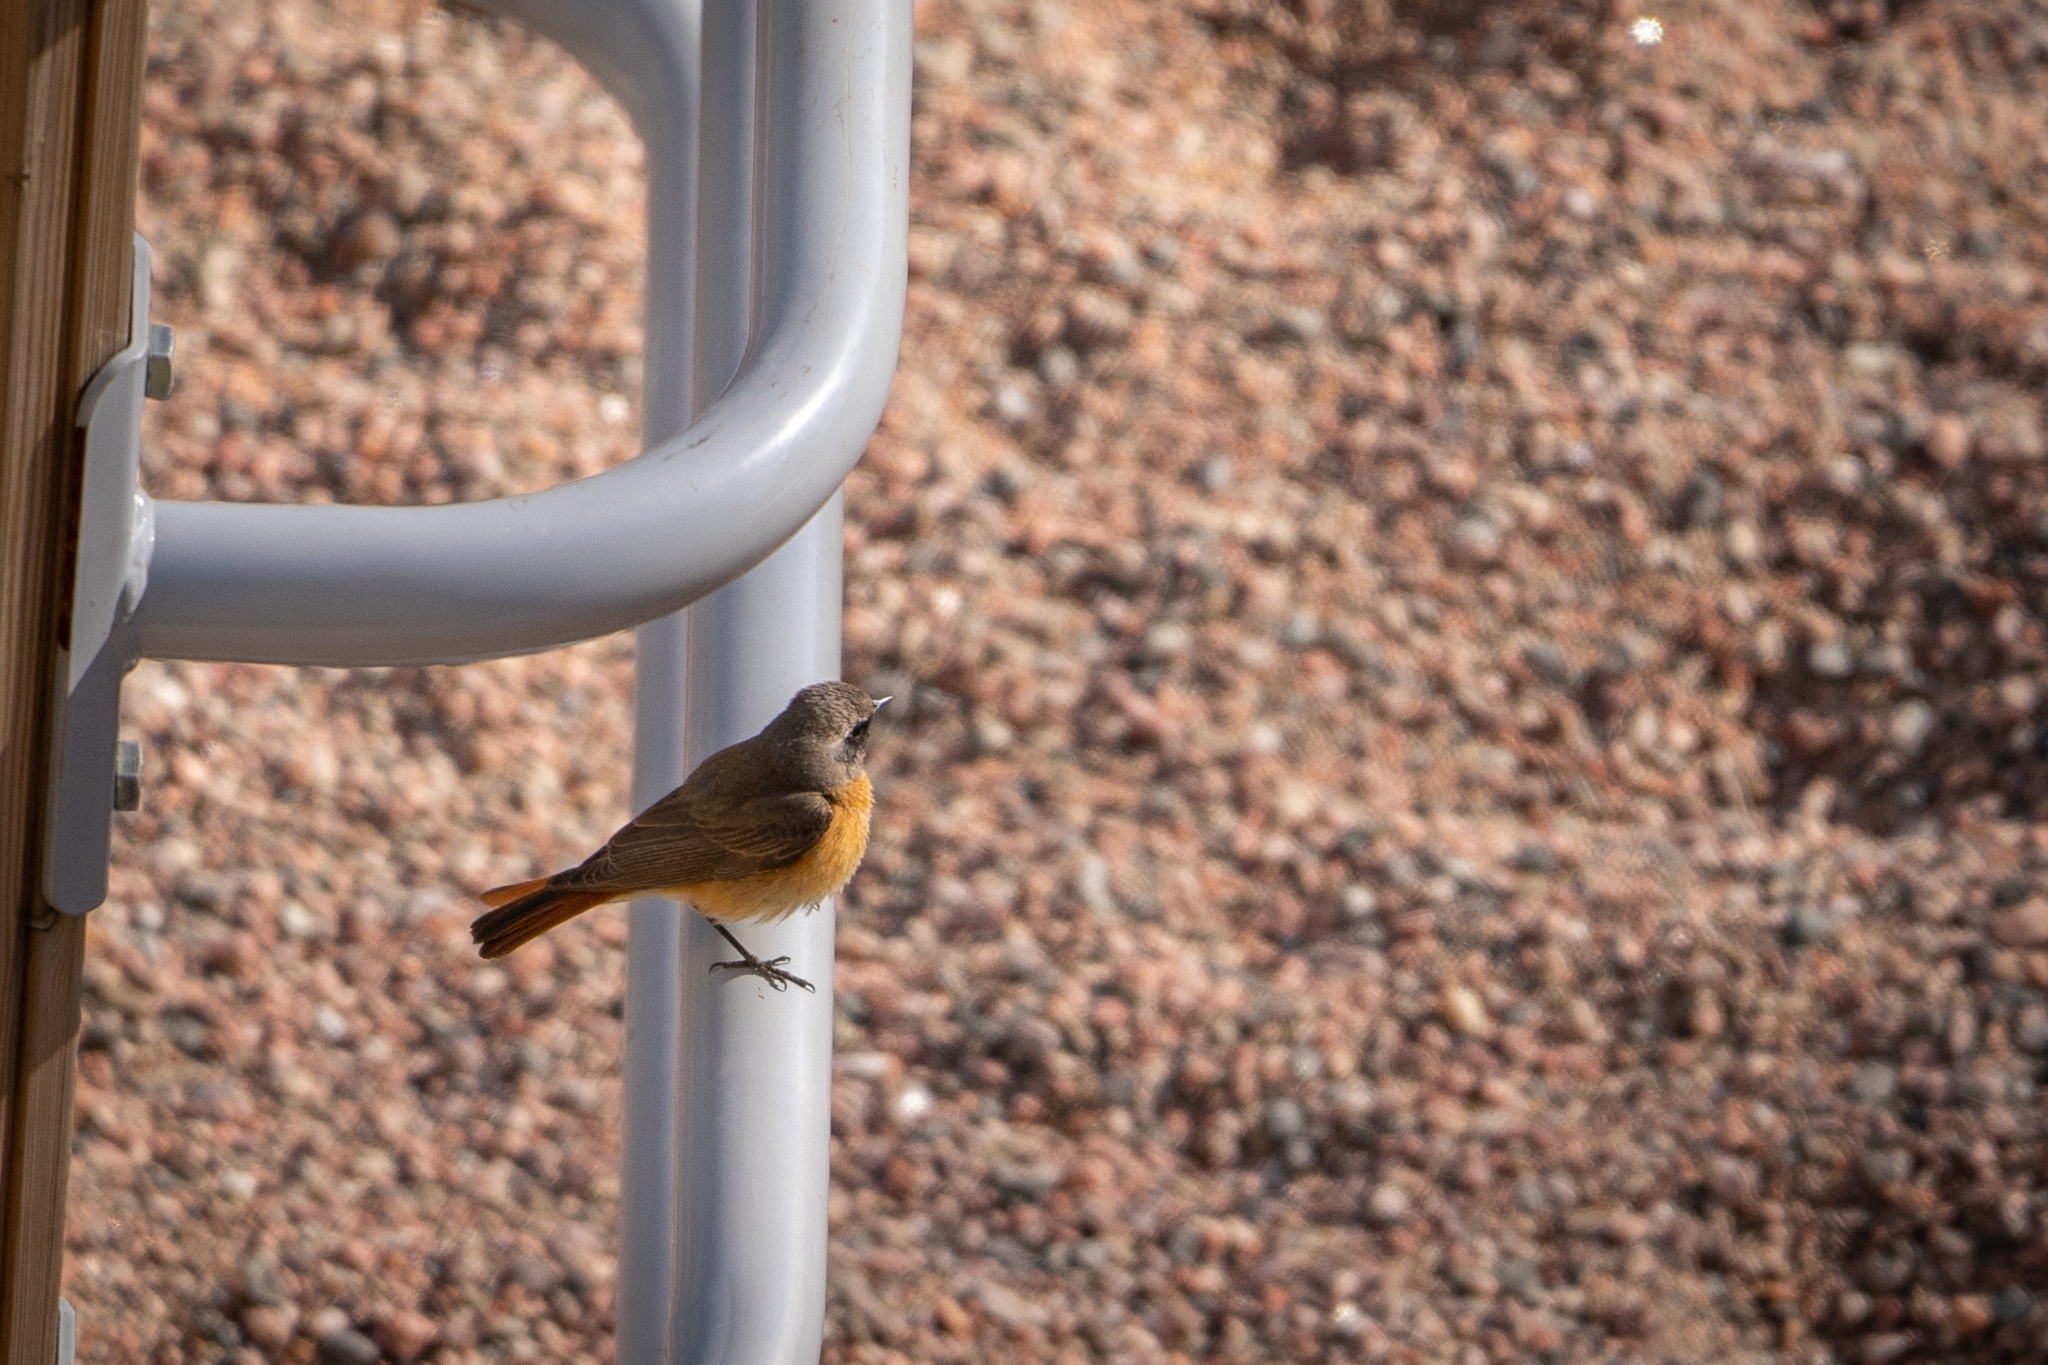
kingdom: Animalia
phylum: Chordata
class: Aves
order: Passeriformes
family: Muscicapidae
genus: Phoenicurus
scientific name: Phoenicurus phoenicurus
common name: Common redstart
